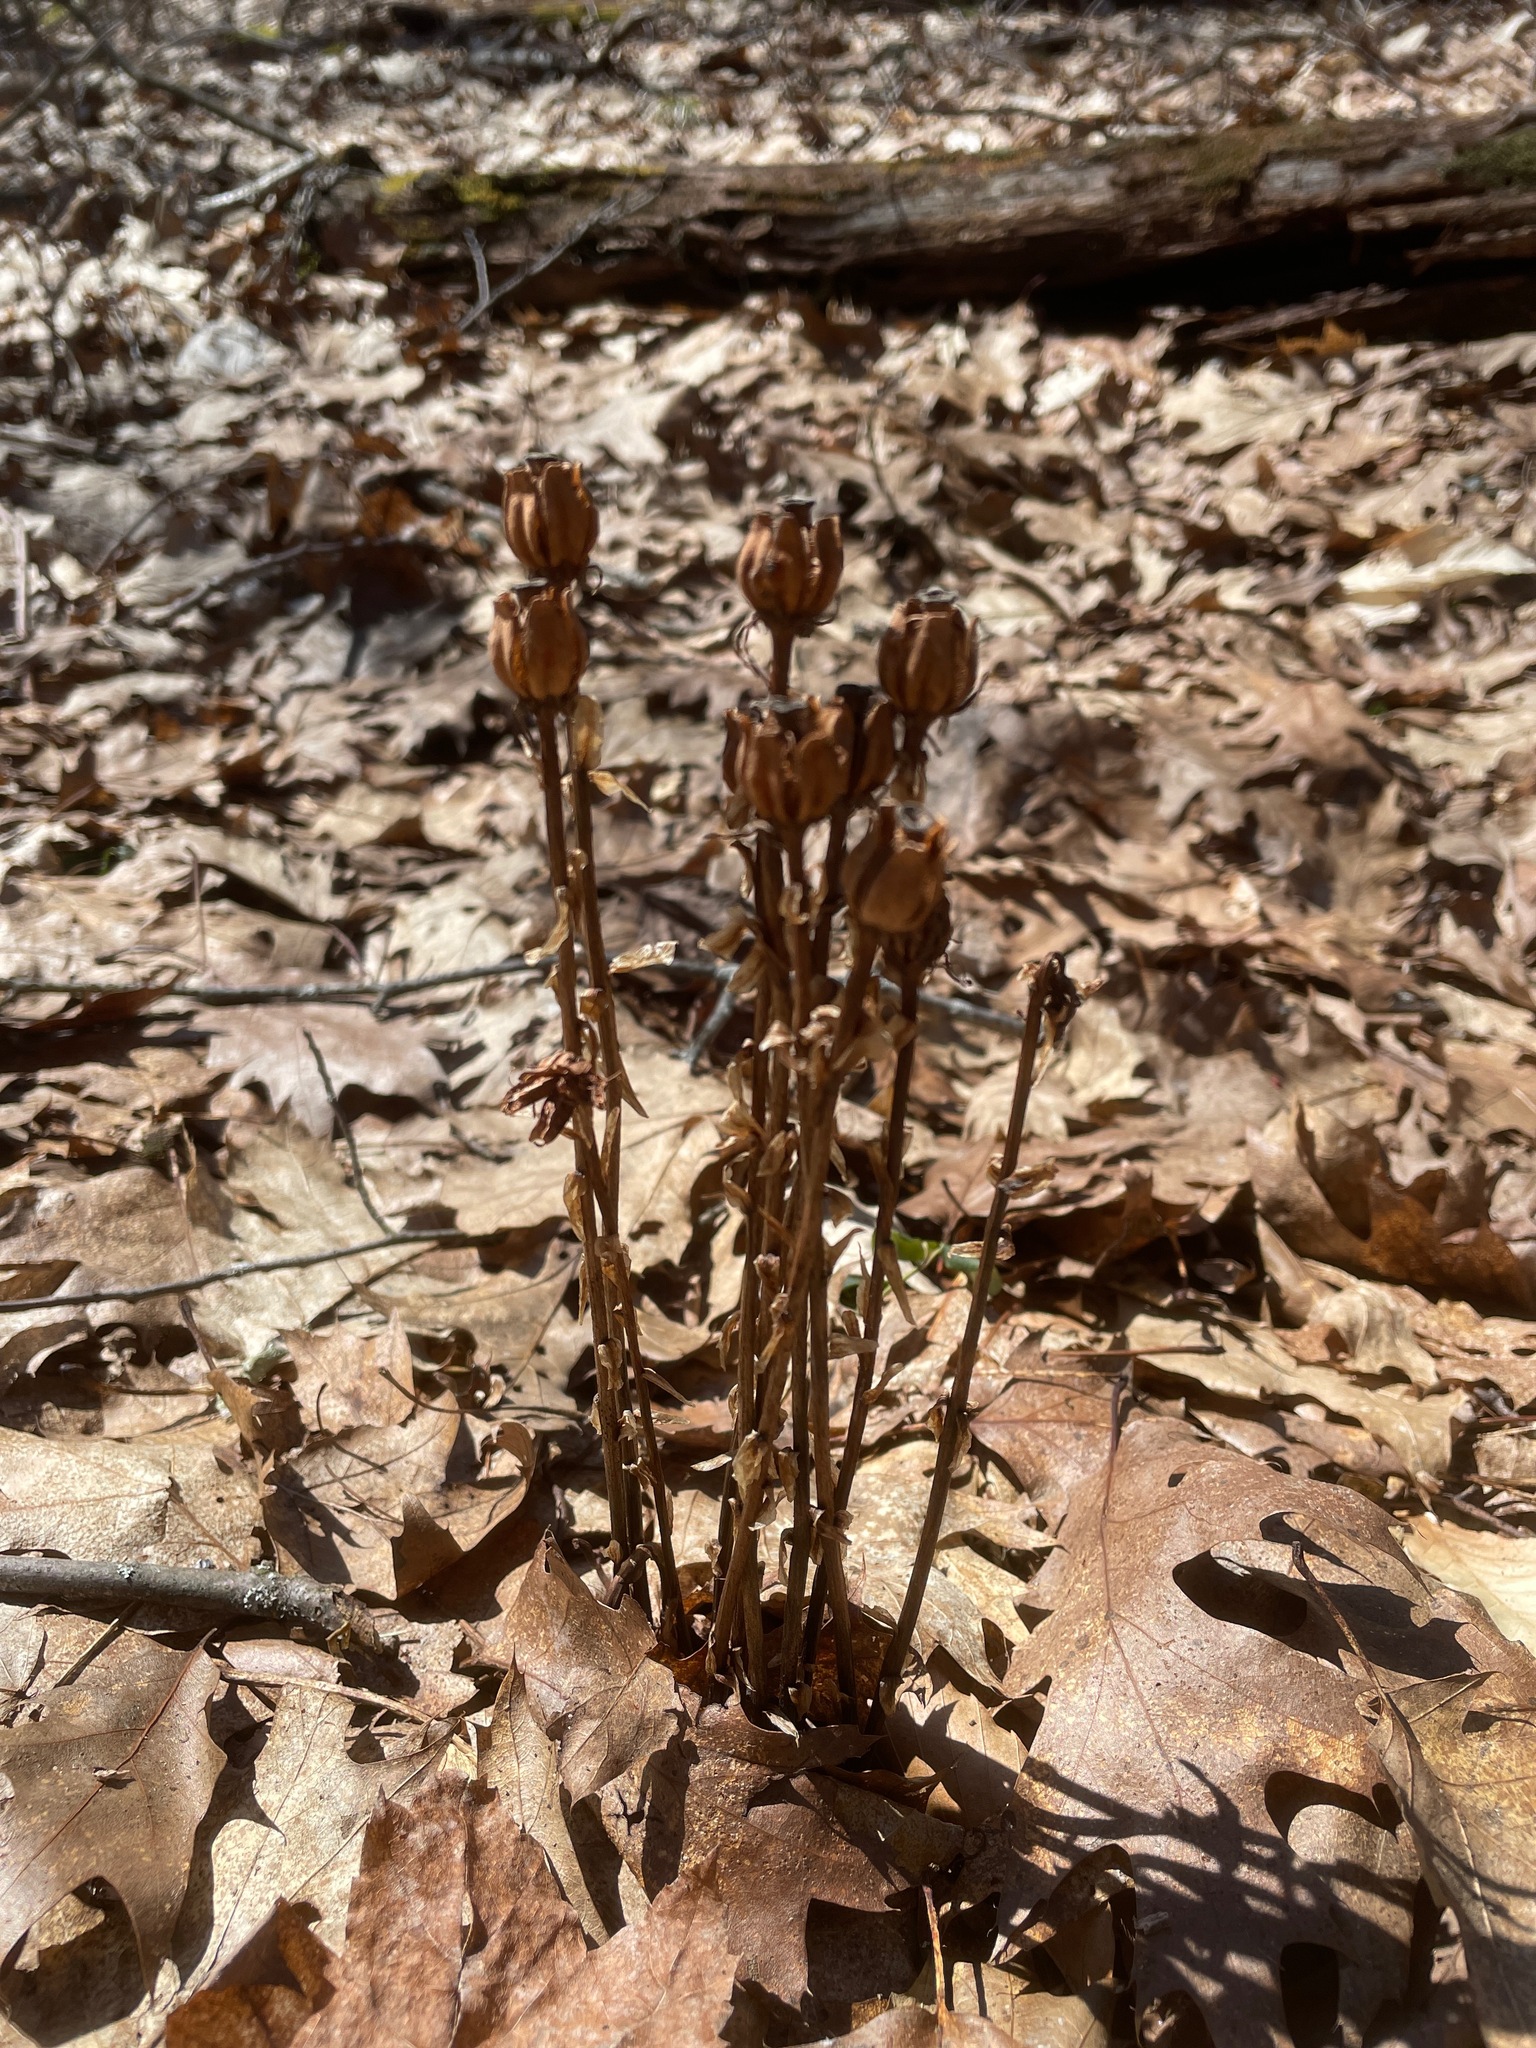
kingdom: Plantae
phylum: Tracheophyta
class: Magnoliopsida
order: Ericales
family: Ericaceae
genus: Monotropa
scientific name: Monotropa uniflora
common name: Convulsion root
